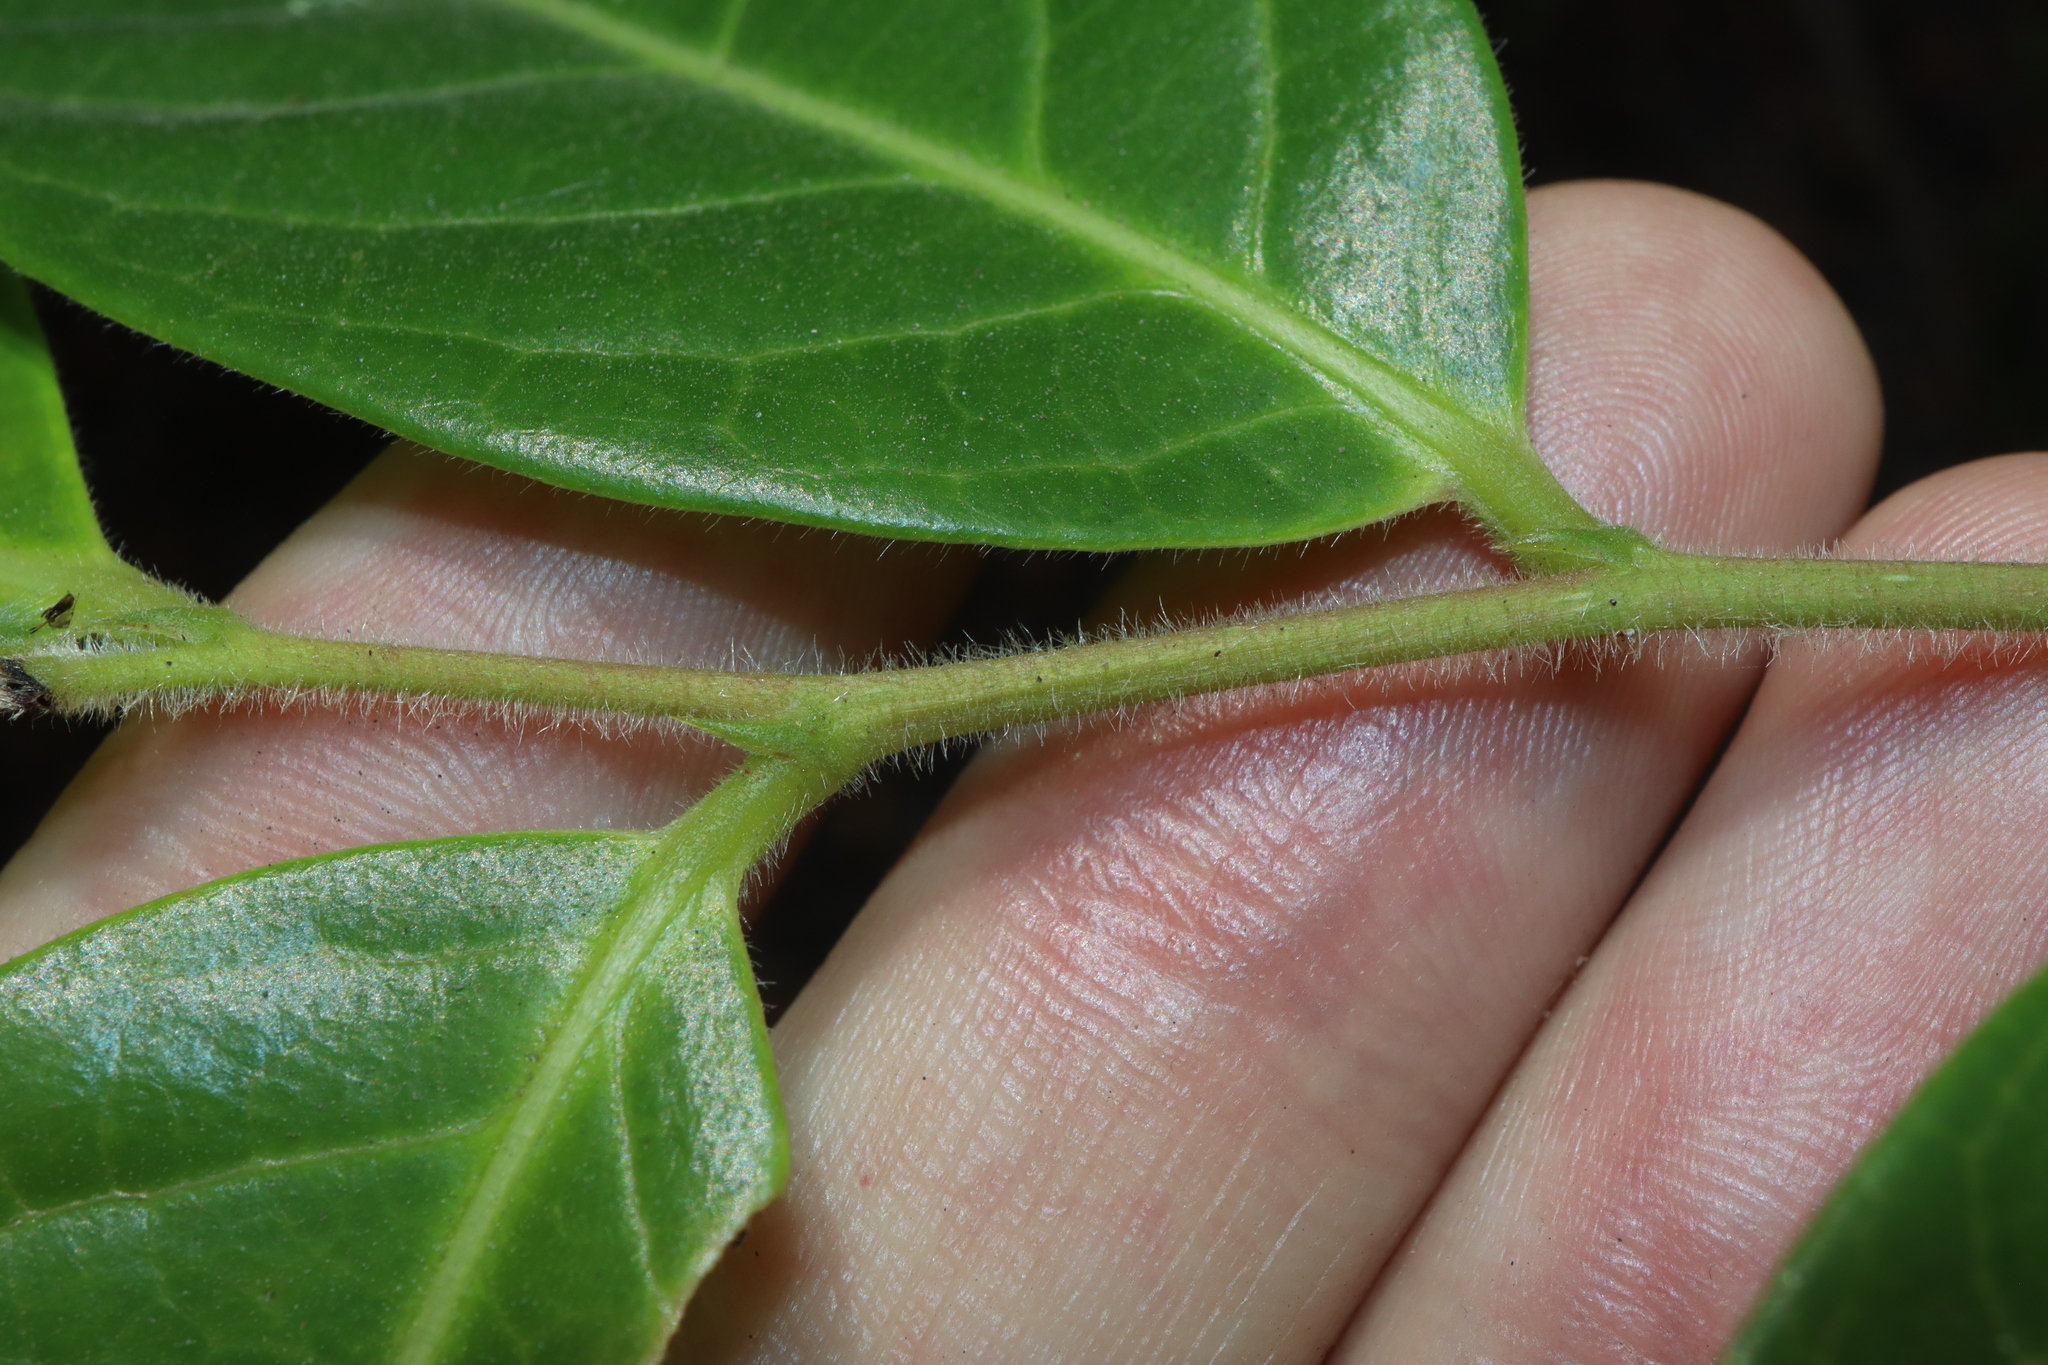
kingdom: Plantae
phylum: Tracheophyta
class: Magnoliopsida
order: Malpighiales
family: Phyllanthaceae
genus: Glochidion
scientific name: Glochidion ferdinandi
